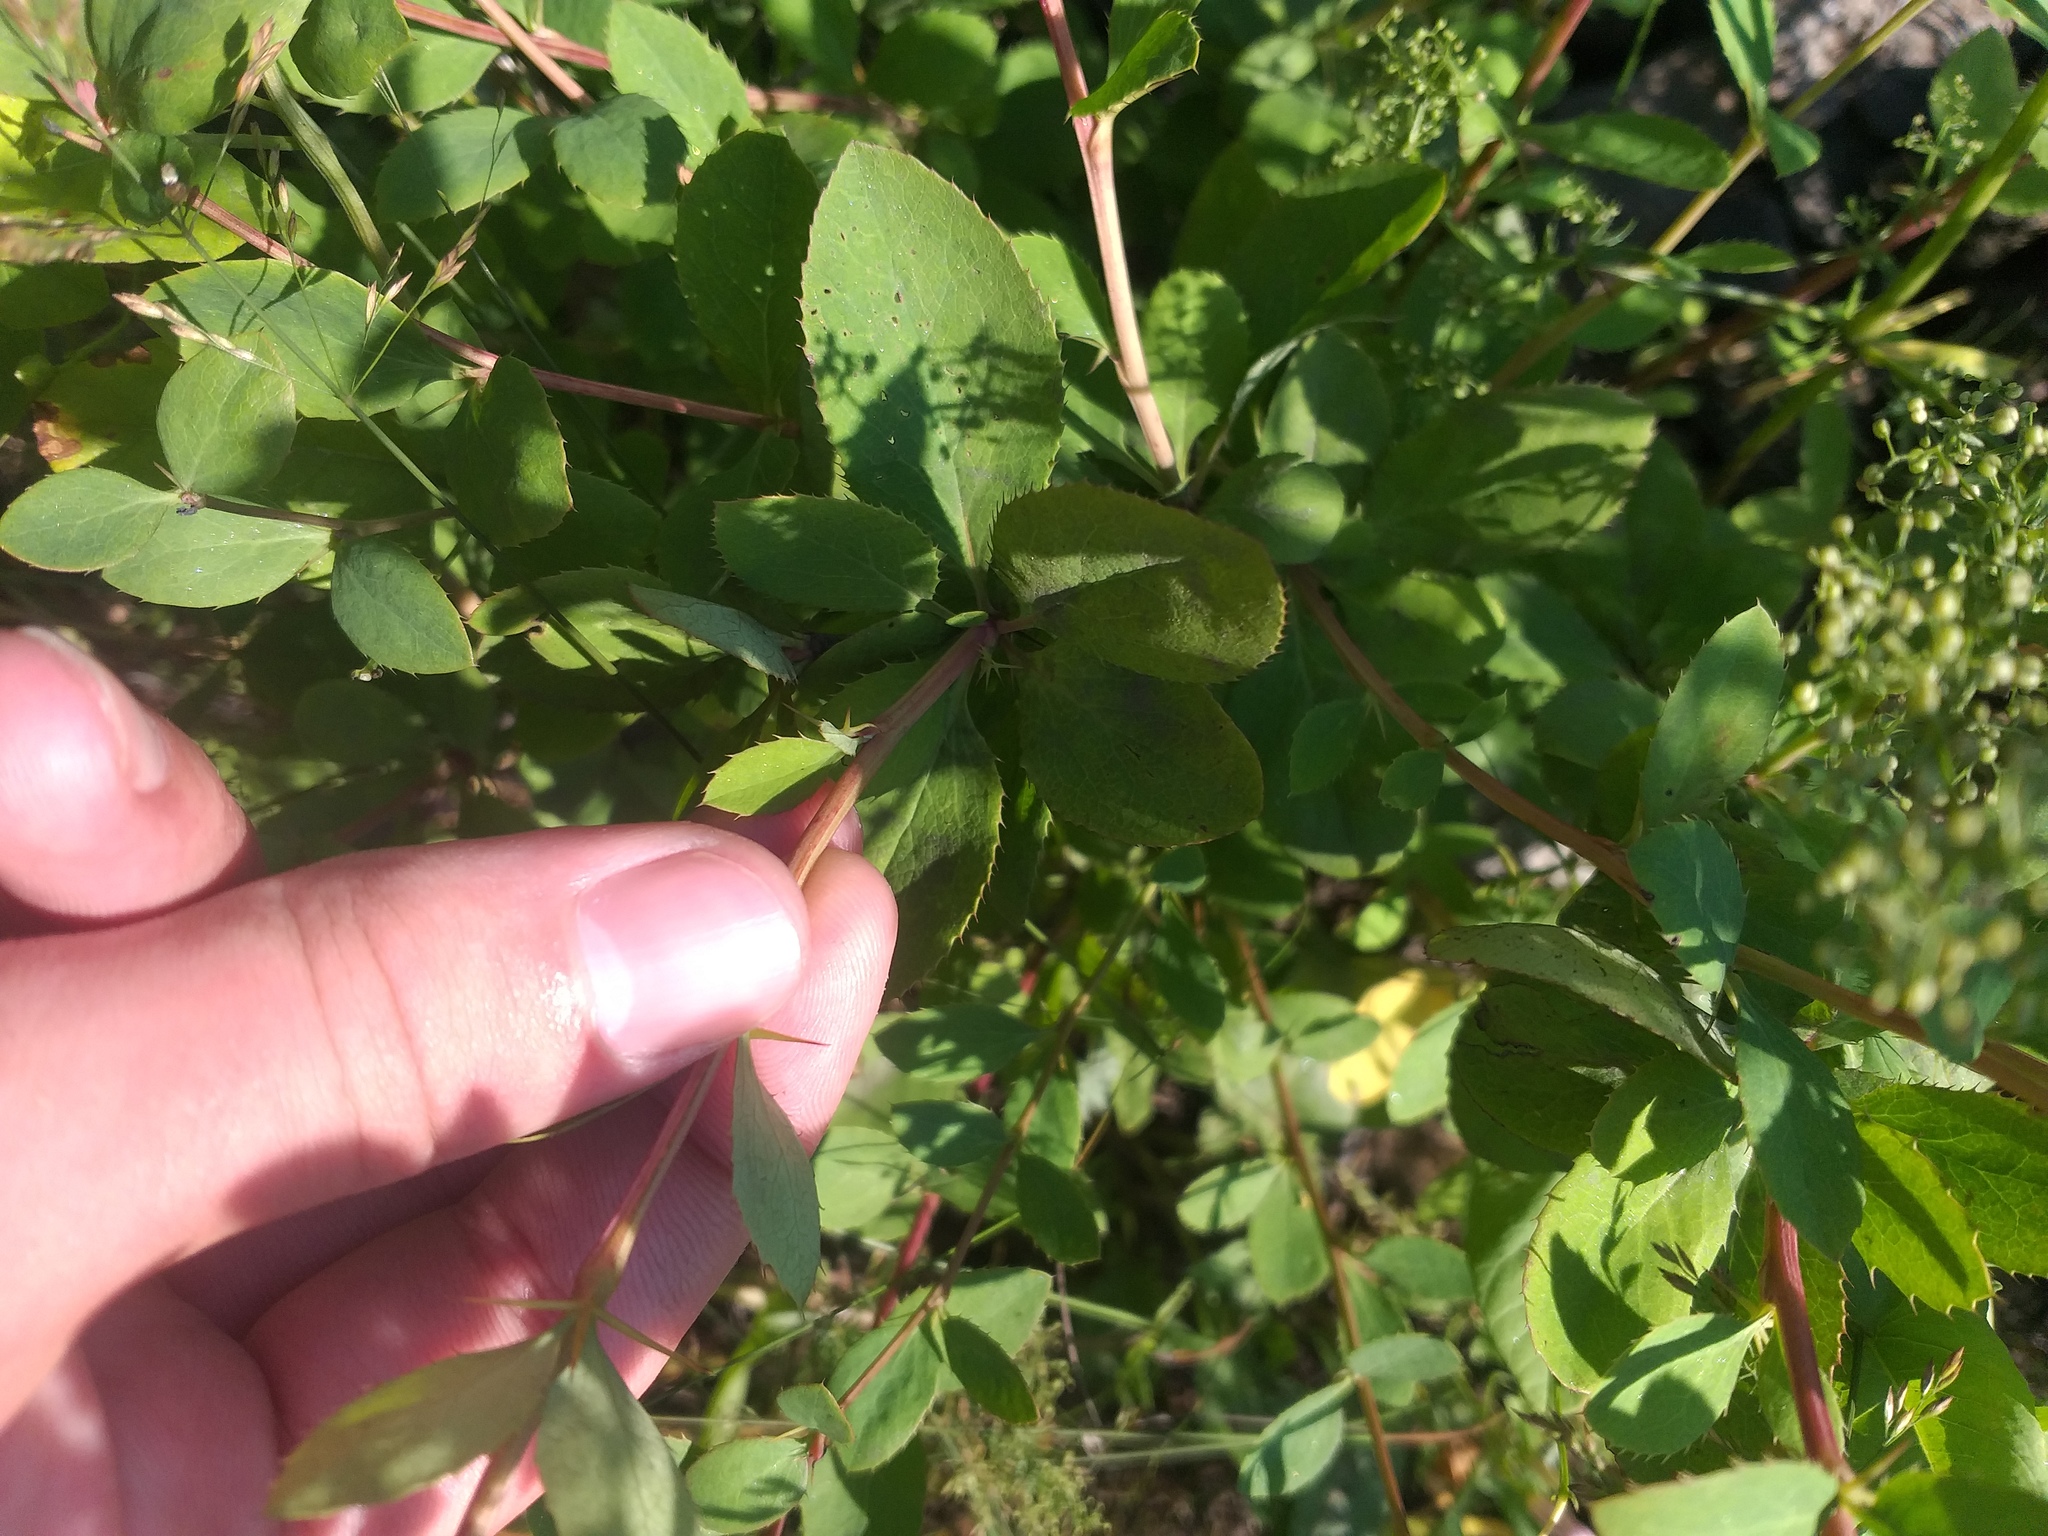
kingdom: Plantae
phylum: Tracheophyta
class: Magnoliopsida
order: Ranunculales
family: Berberidaceae
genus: Berberis
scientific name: Berberis vulgaris
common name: Barberry
